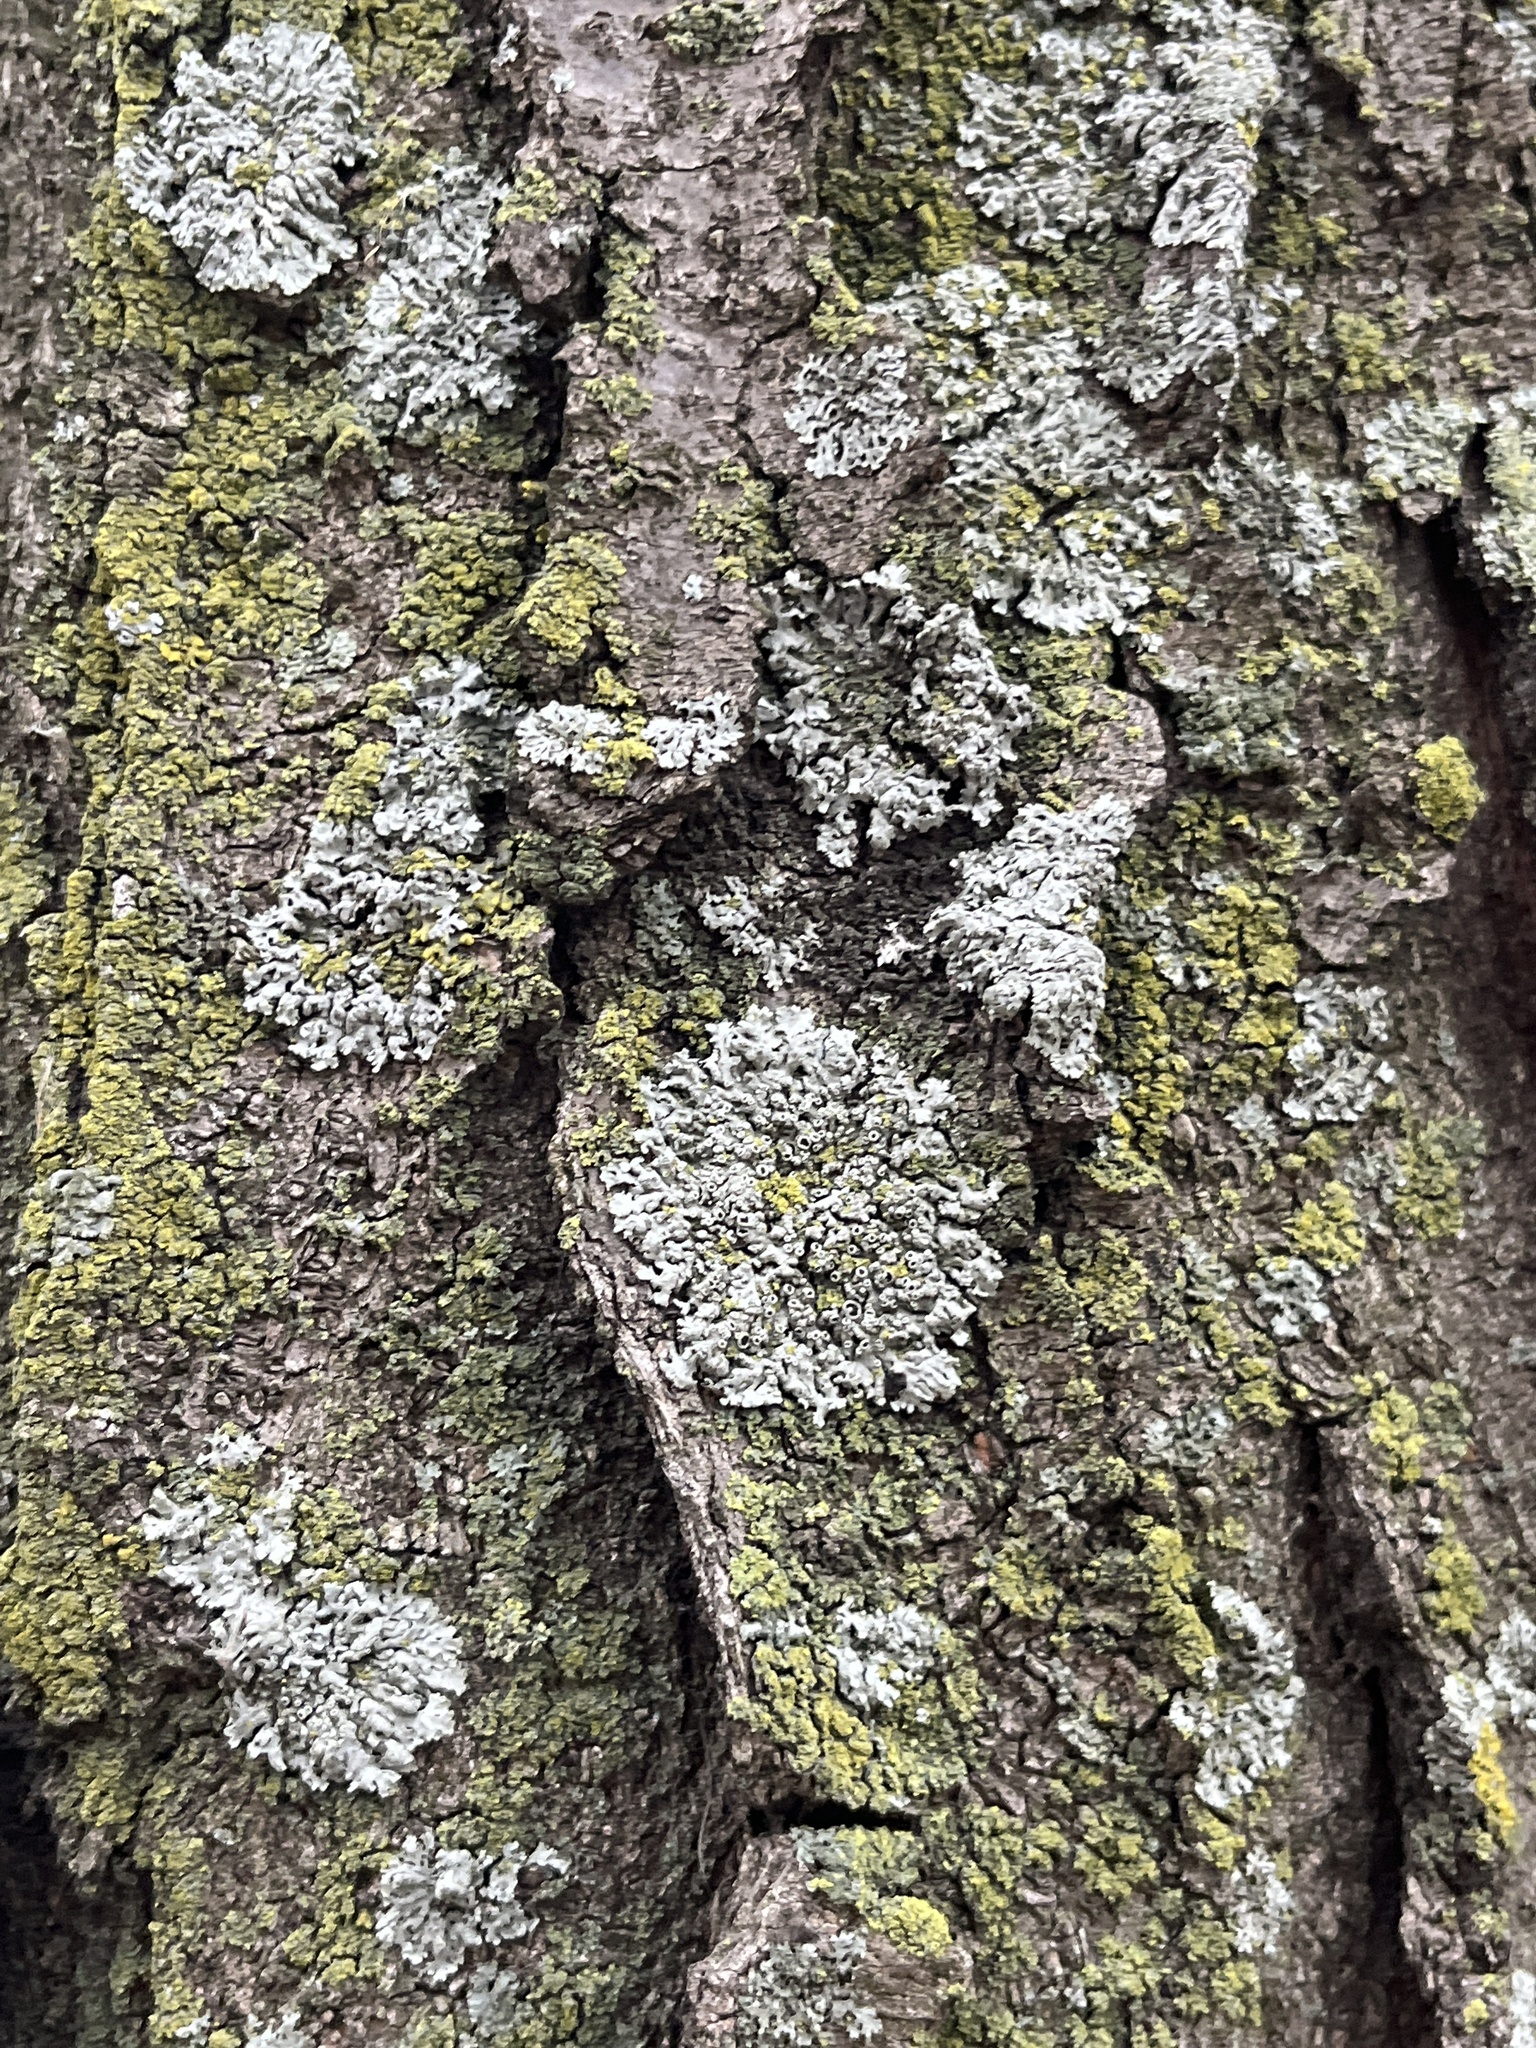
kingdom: Fungi
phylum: Ascomycota
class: Lecanoromycetes
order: Caliciales
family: Physciaceae
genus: Physcia
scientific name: Physcia millegrana
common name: Rosette lichen
